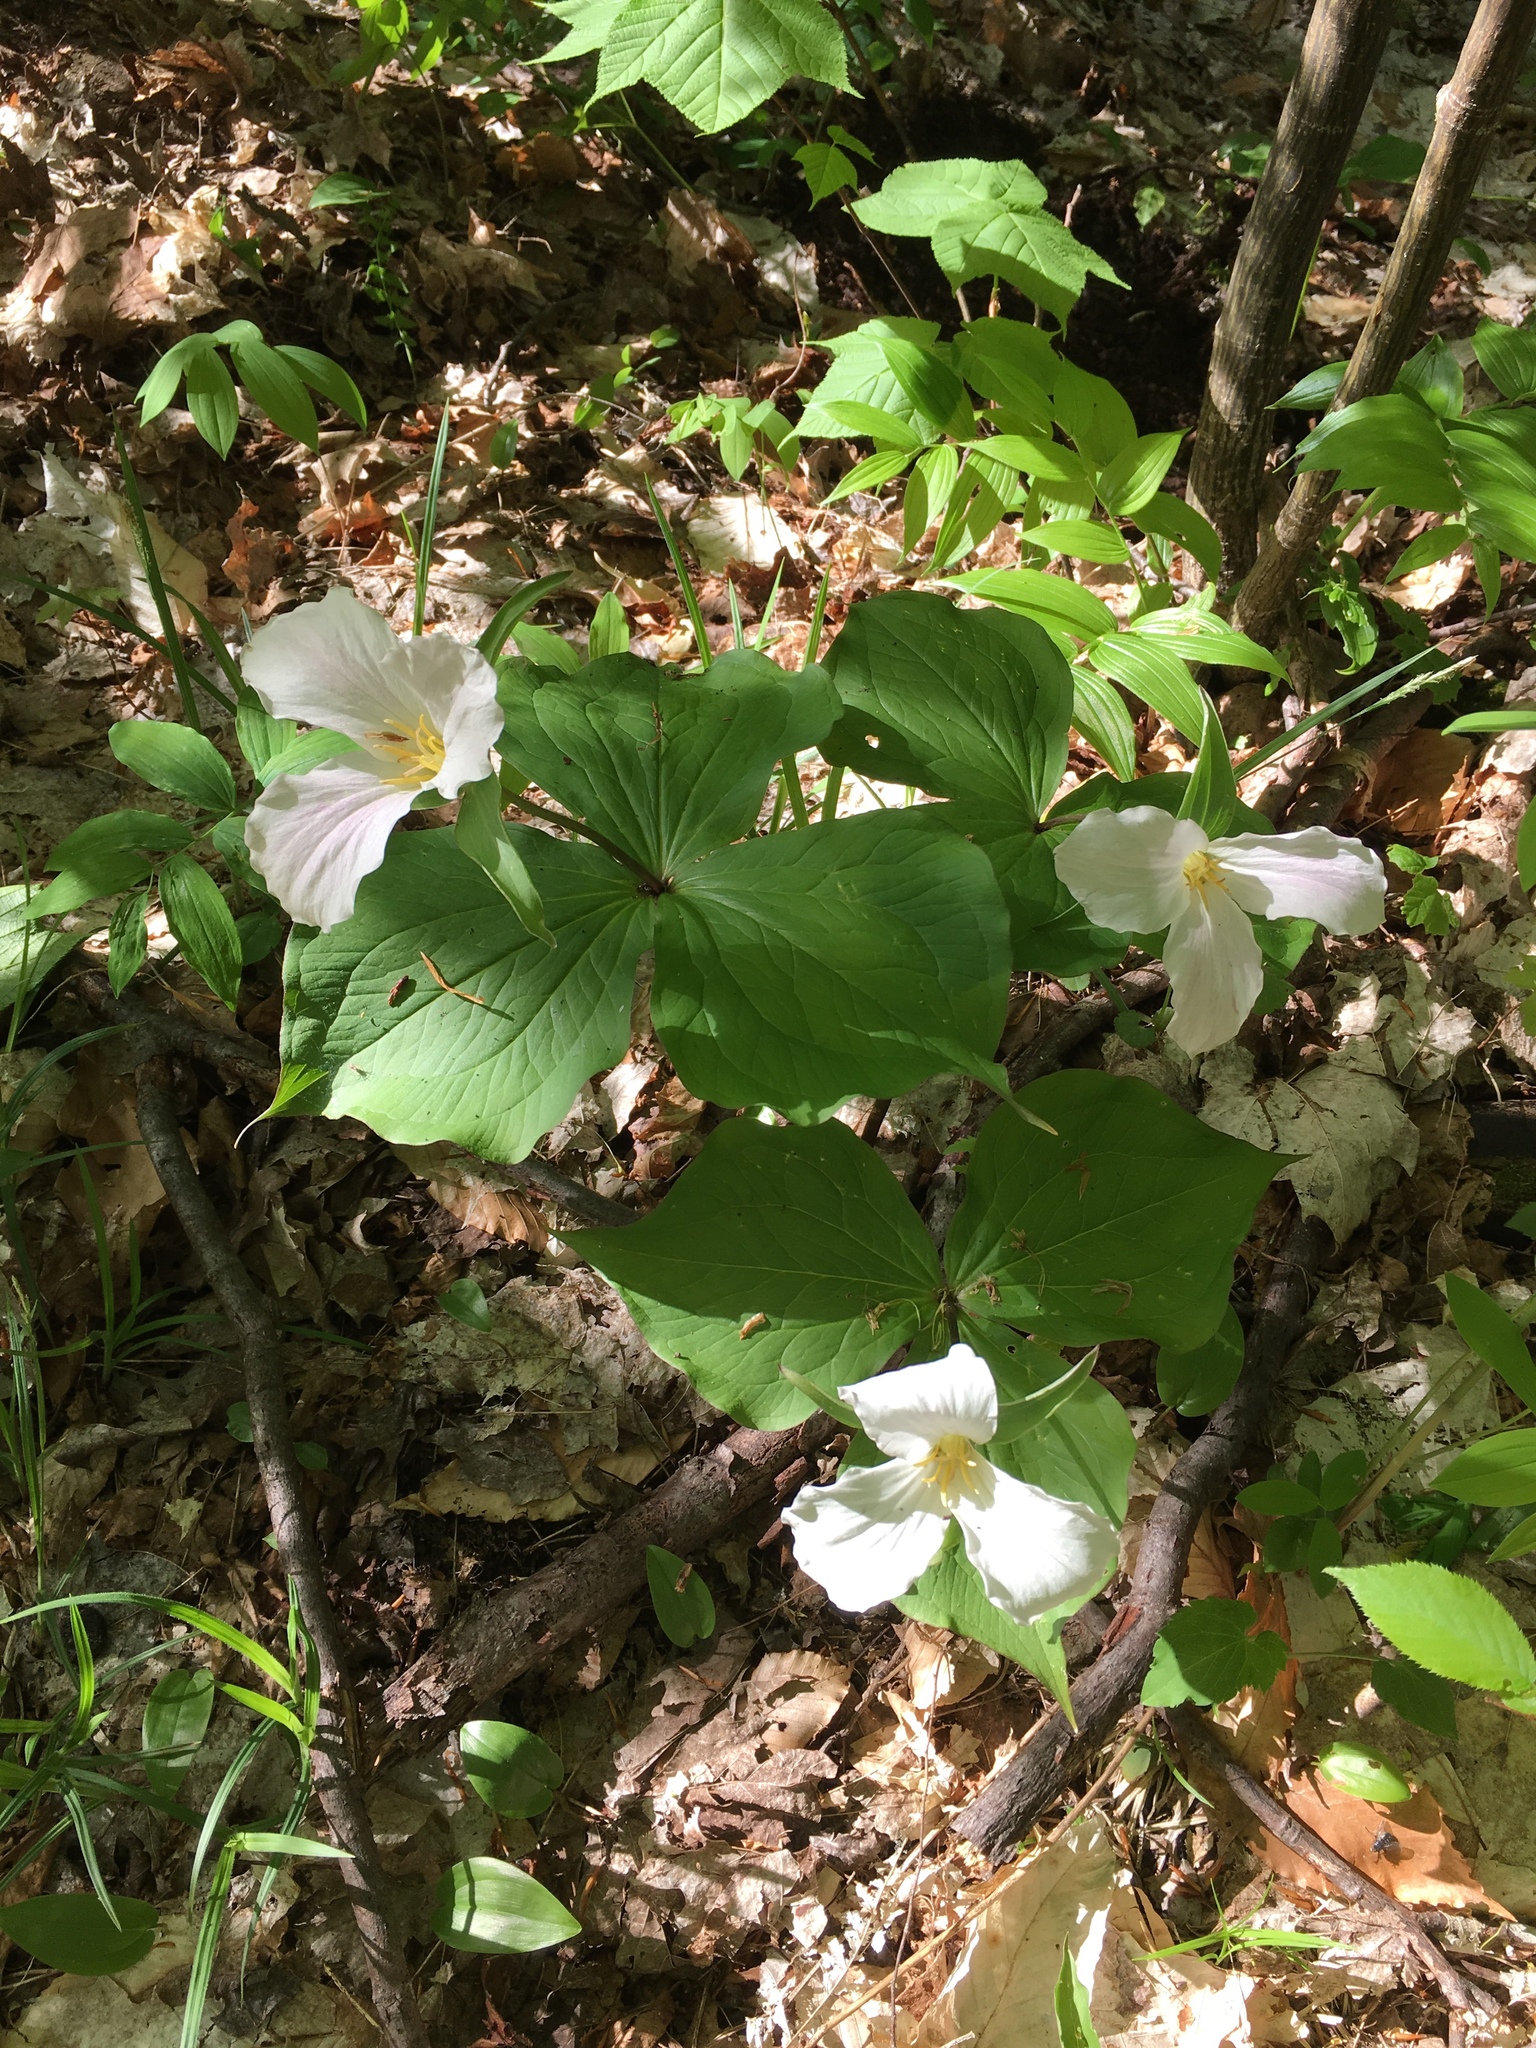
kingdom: Plantae
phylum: Tracheophyta
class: Liliopsida
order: Liliales
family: Melanthiaceae
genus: Trillium
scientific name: Trillium grandiflorum
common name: Great white trillium
